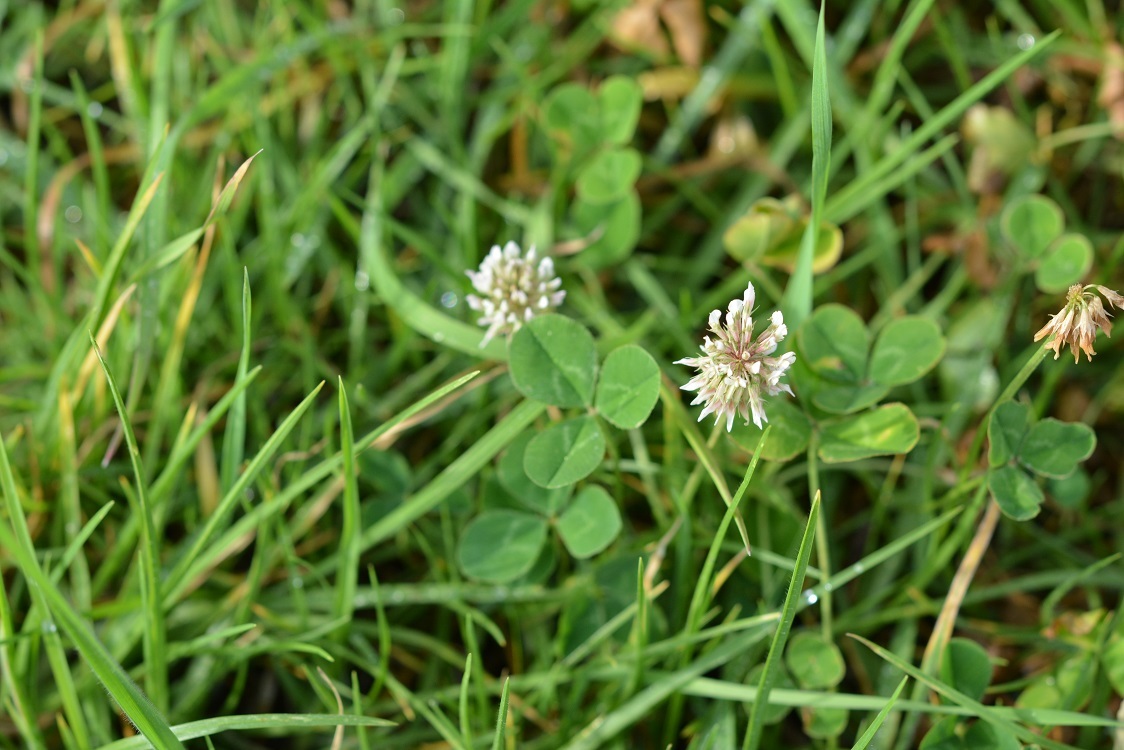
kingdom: Plantae
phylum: Tracheophyta
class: Magnoliopsida
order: Fabales
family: Fabaceae
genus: Trifolium
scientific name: Trifolium repens
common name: White clover
